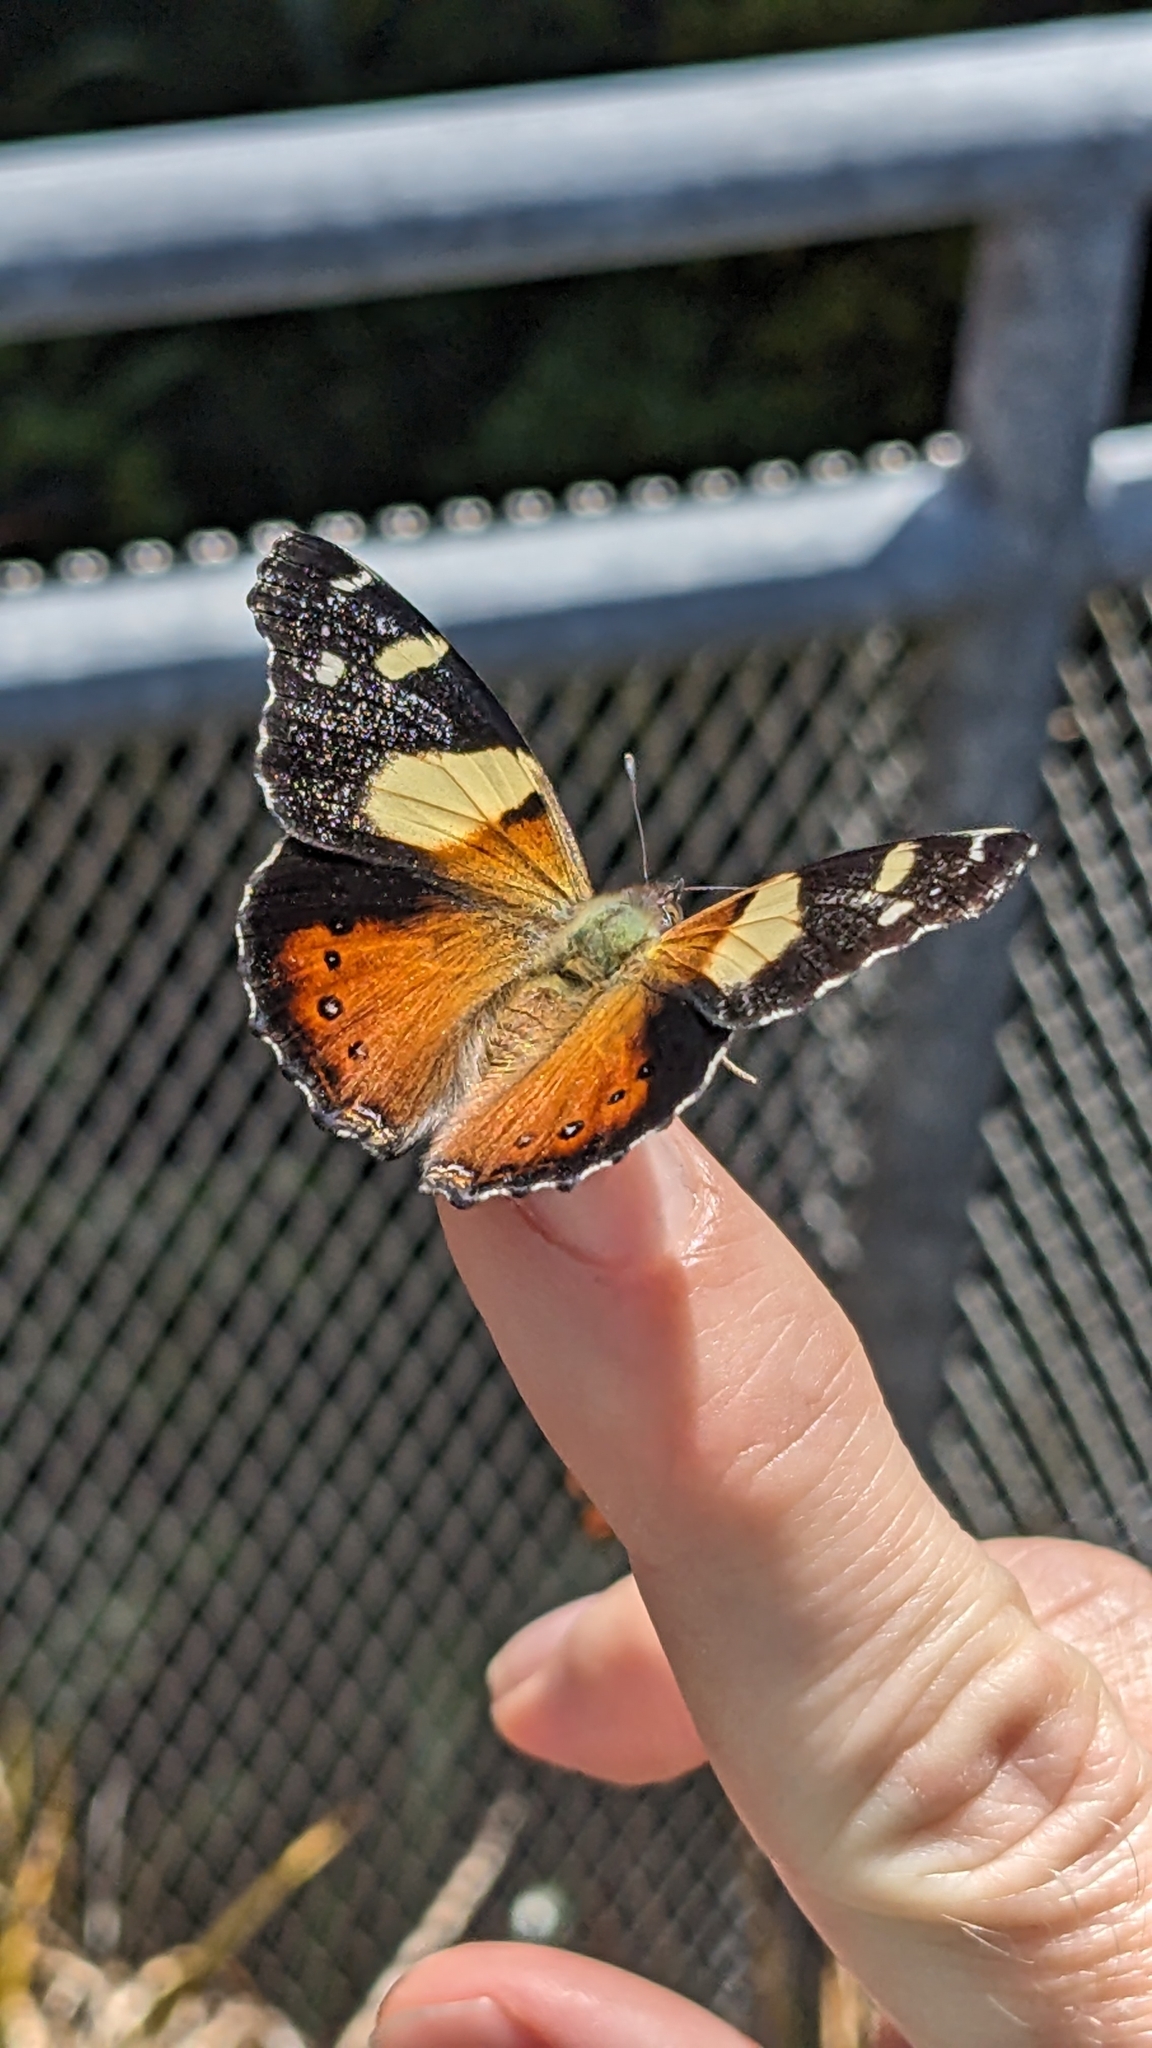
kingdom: Animalia
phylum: Arthropoda
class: Insecta
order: Lepidoptera
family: Nymphalidae
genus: Vanessa
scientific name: Vanessa itea
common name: Yellow admiral
